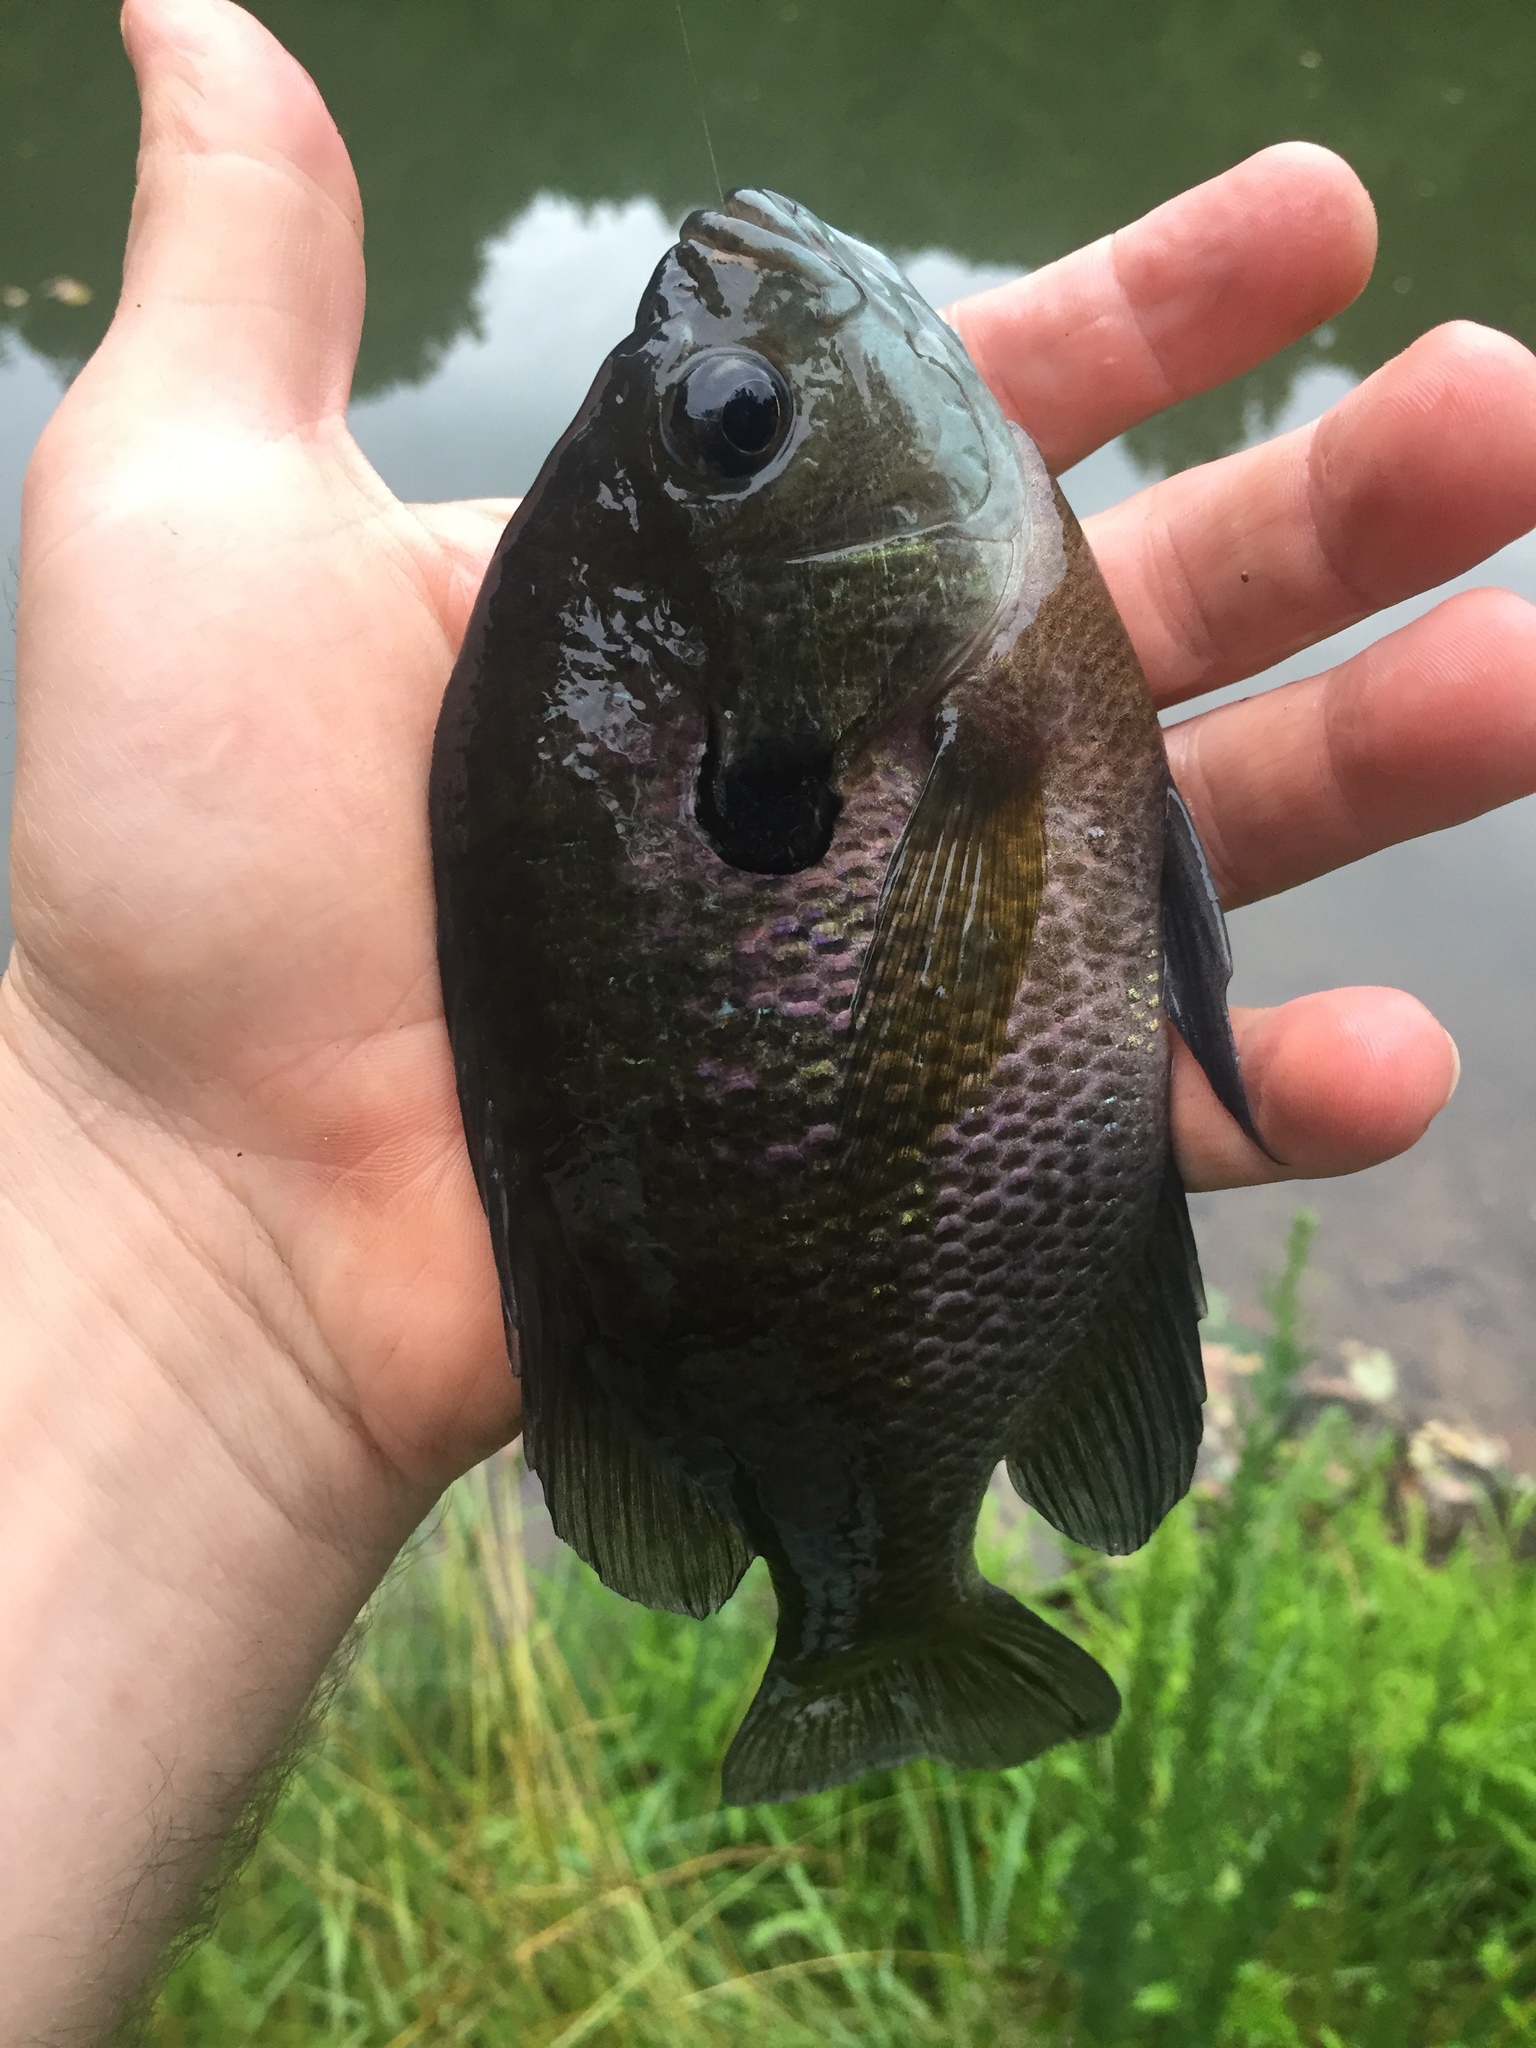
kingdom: Animalia
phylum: Chordata
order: Perciformes
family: Centrarchidae
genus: Lepomis
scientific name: Lepomis macrochirus
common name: Bluegill
